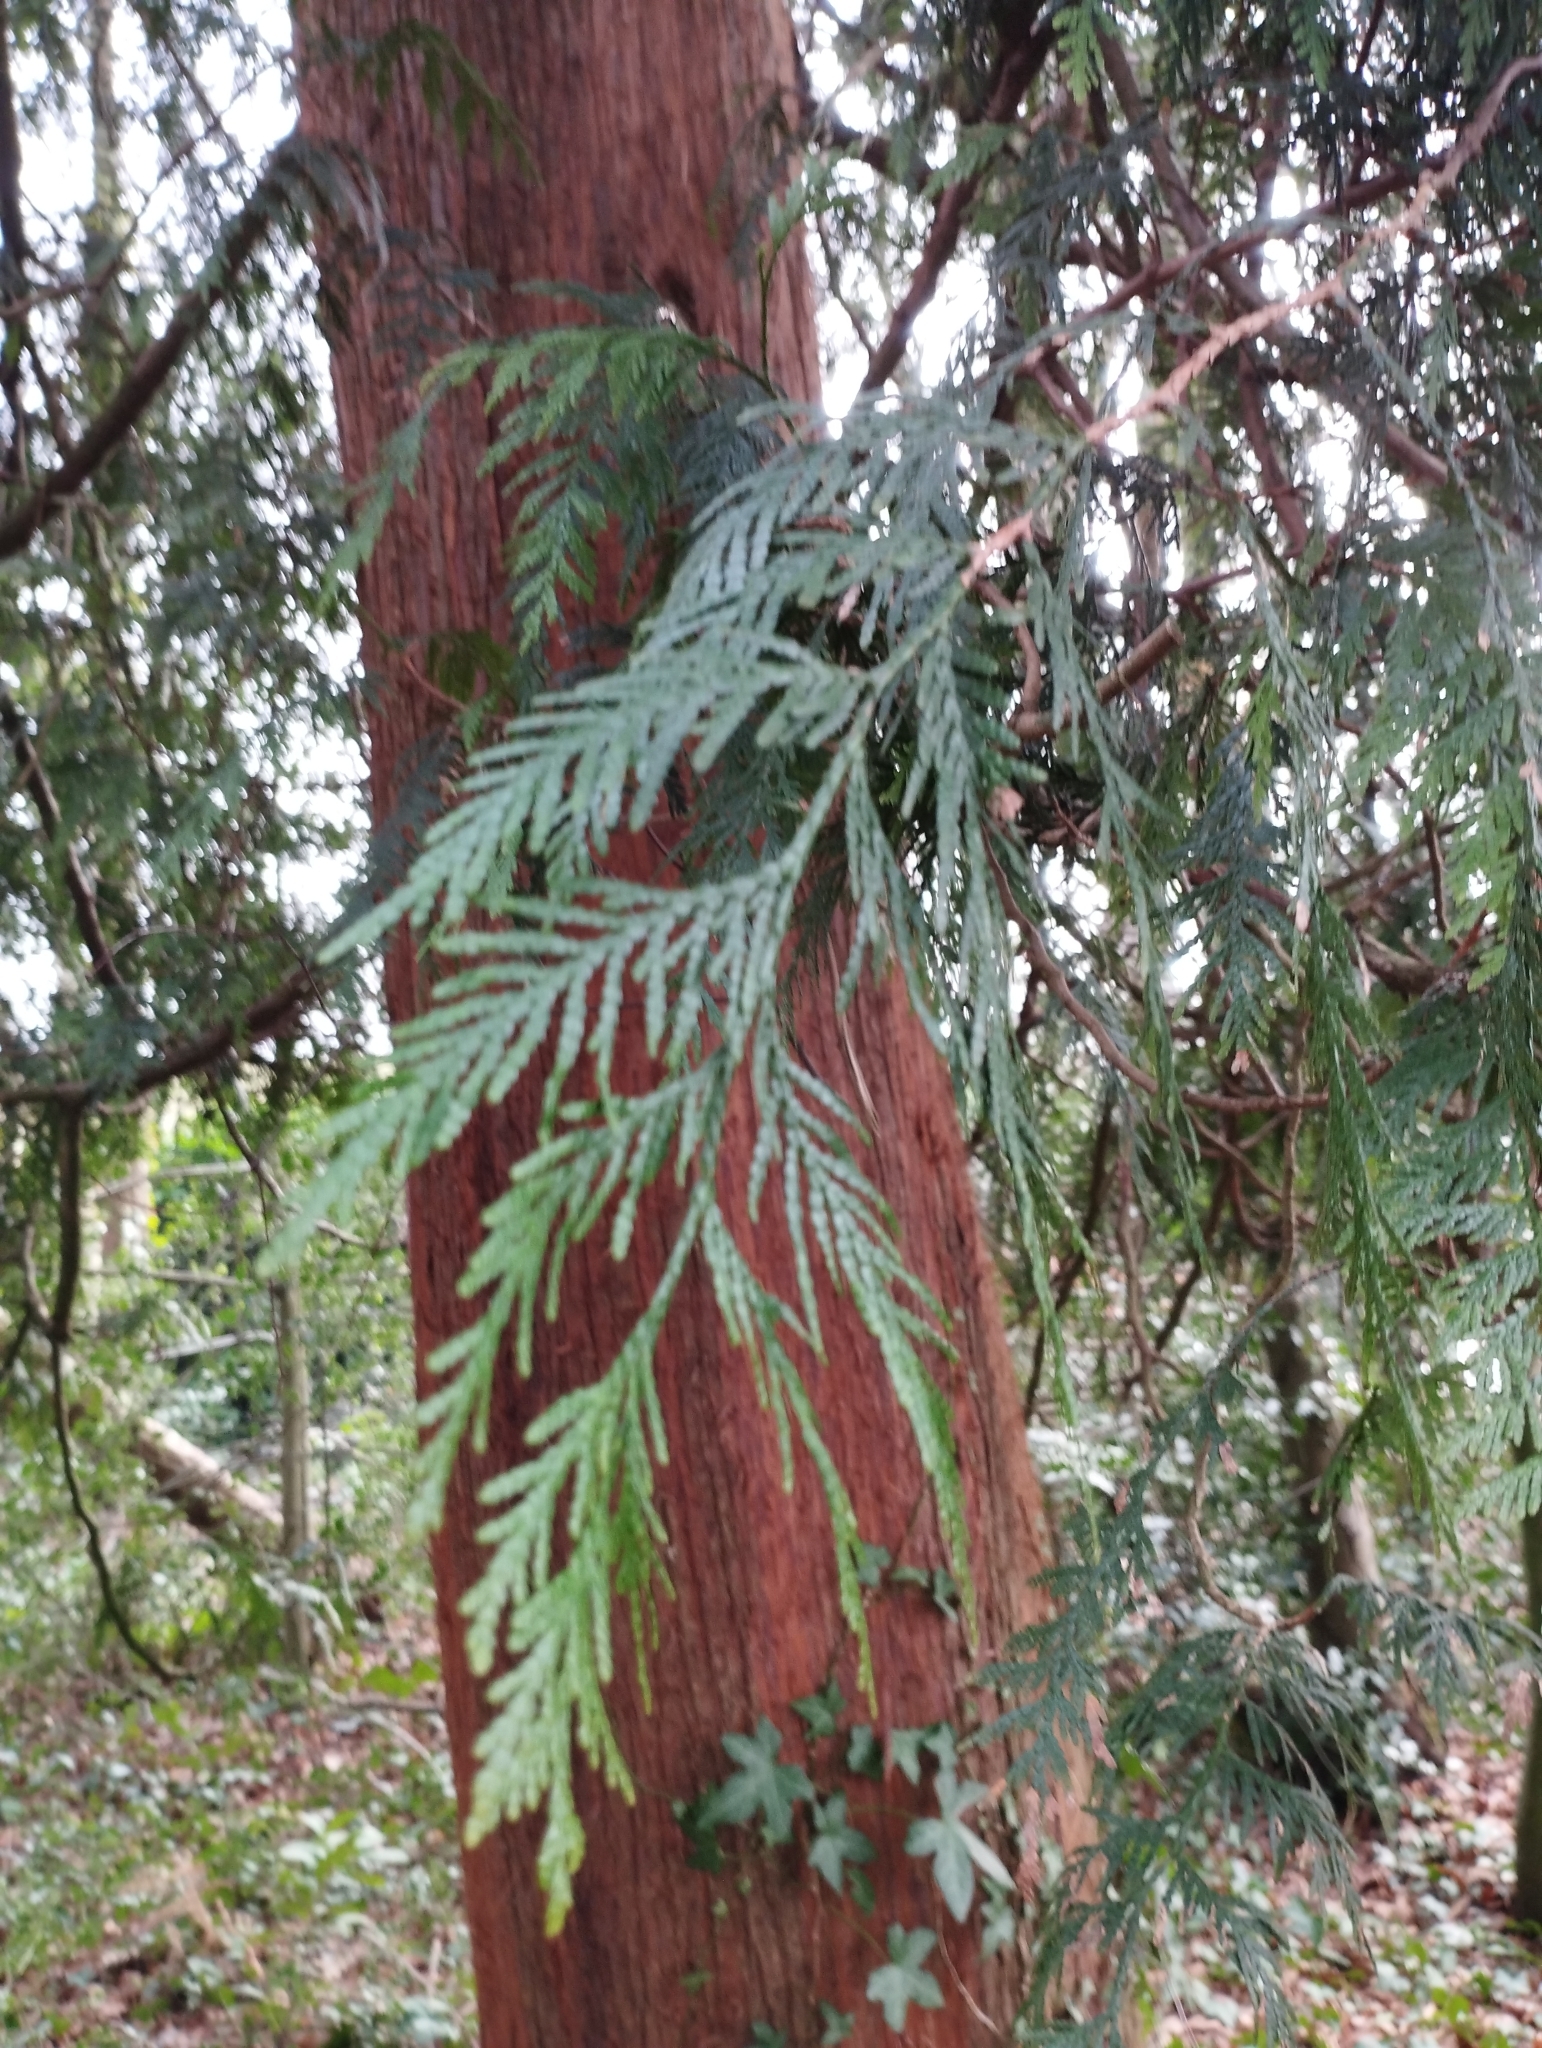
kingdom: Plantae
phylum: Tracheophyta
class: Pinopsida
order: Pinales
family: Cupressaceae
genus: Thuja
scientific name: Thuja plicata
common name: Western red-cedar
